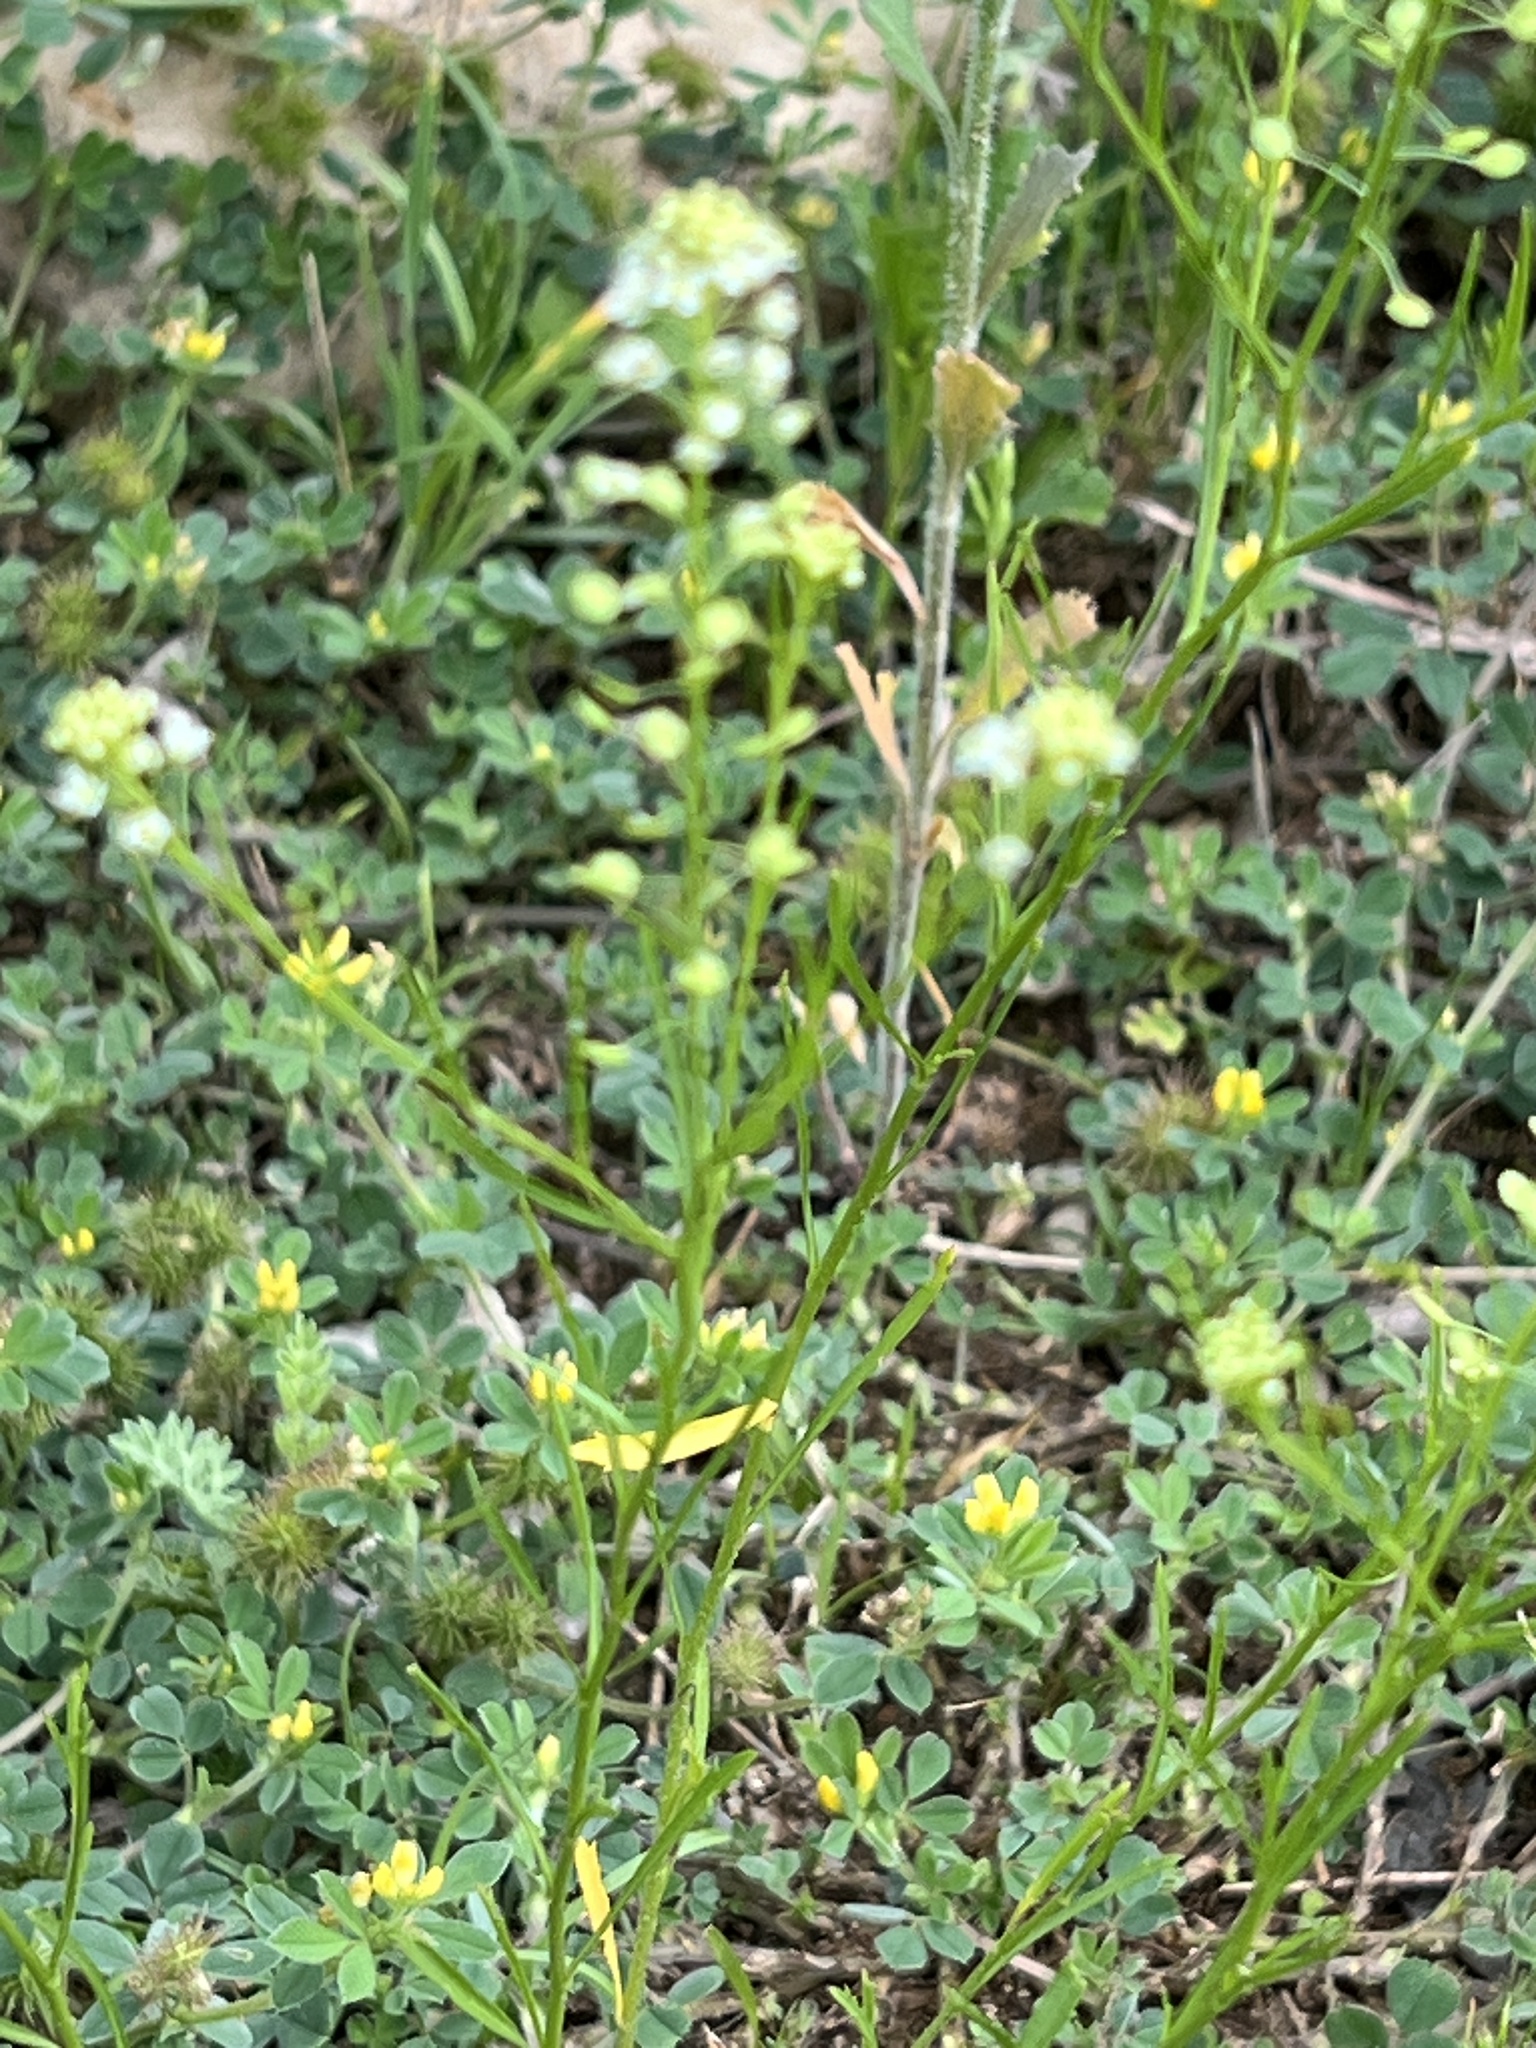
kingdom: Plantae
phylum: Tracheophyta
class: Magnoliopsida
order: Brassicales
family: Brassicaceae
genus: Lepidium
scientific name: Lepidium virginicum
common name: Least pepperwort
